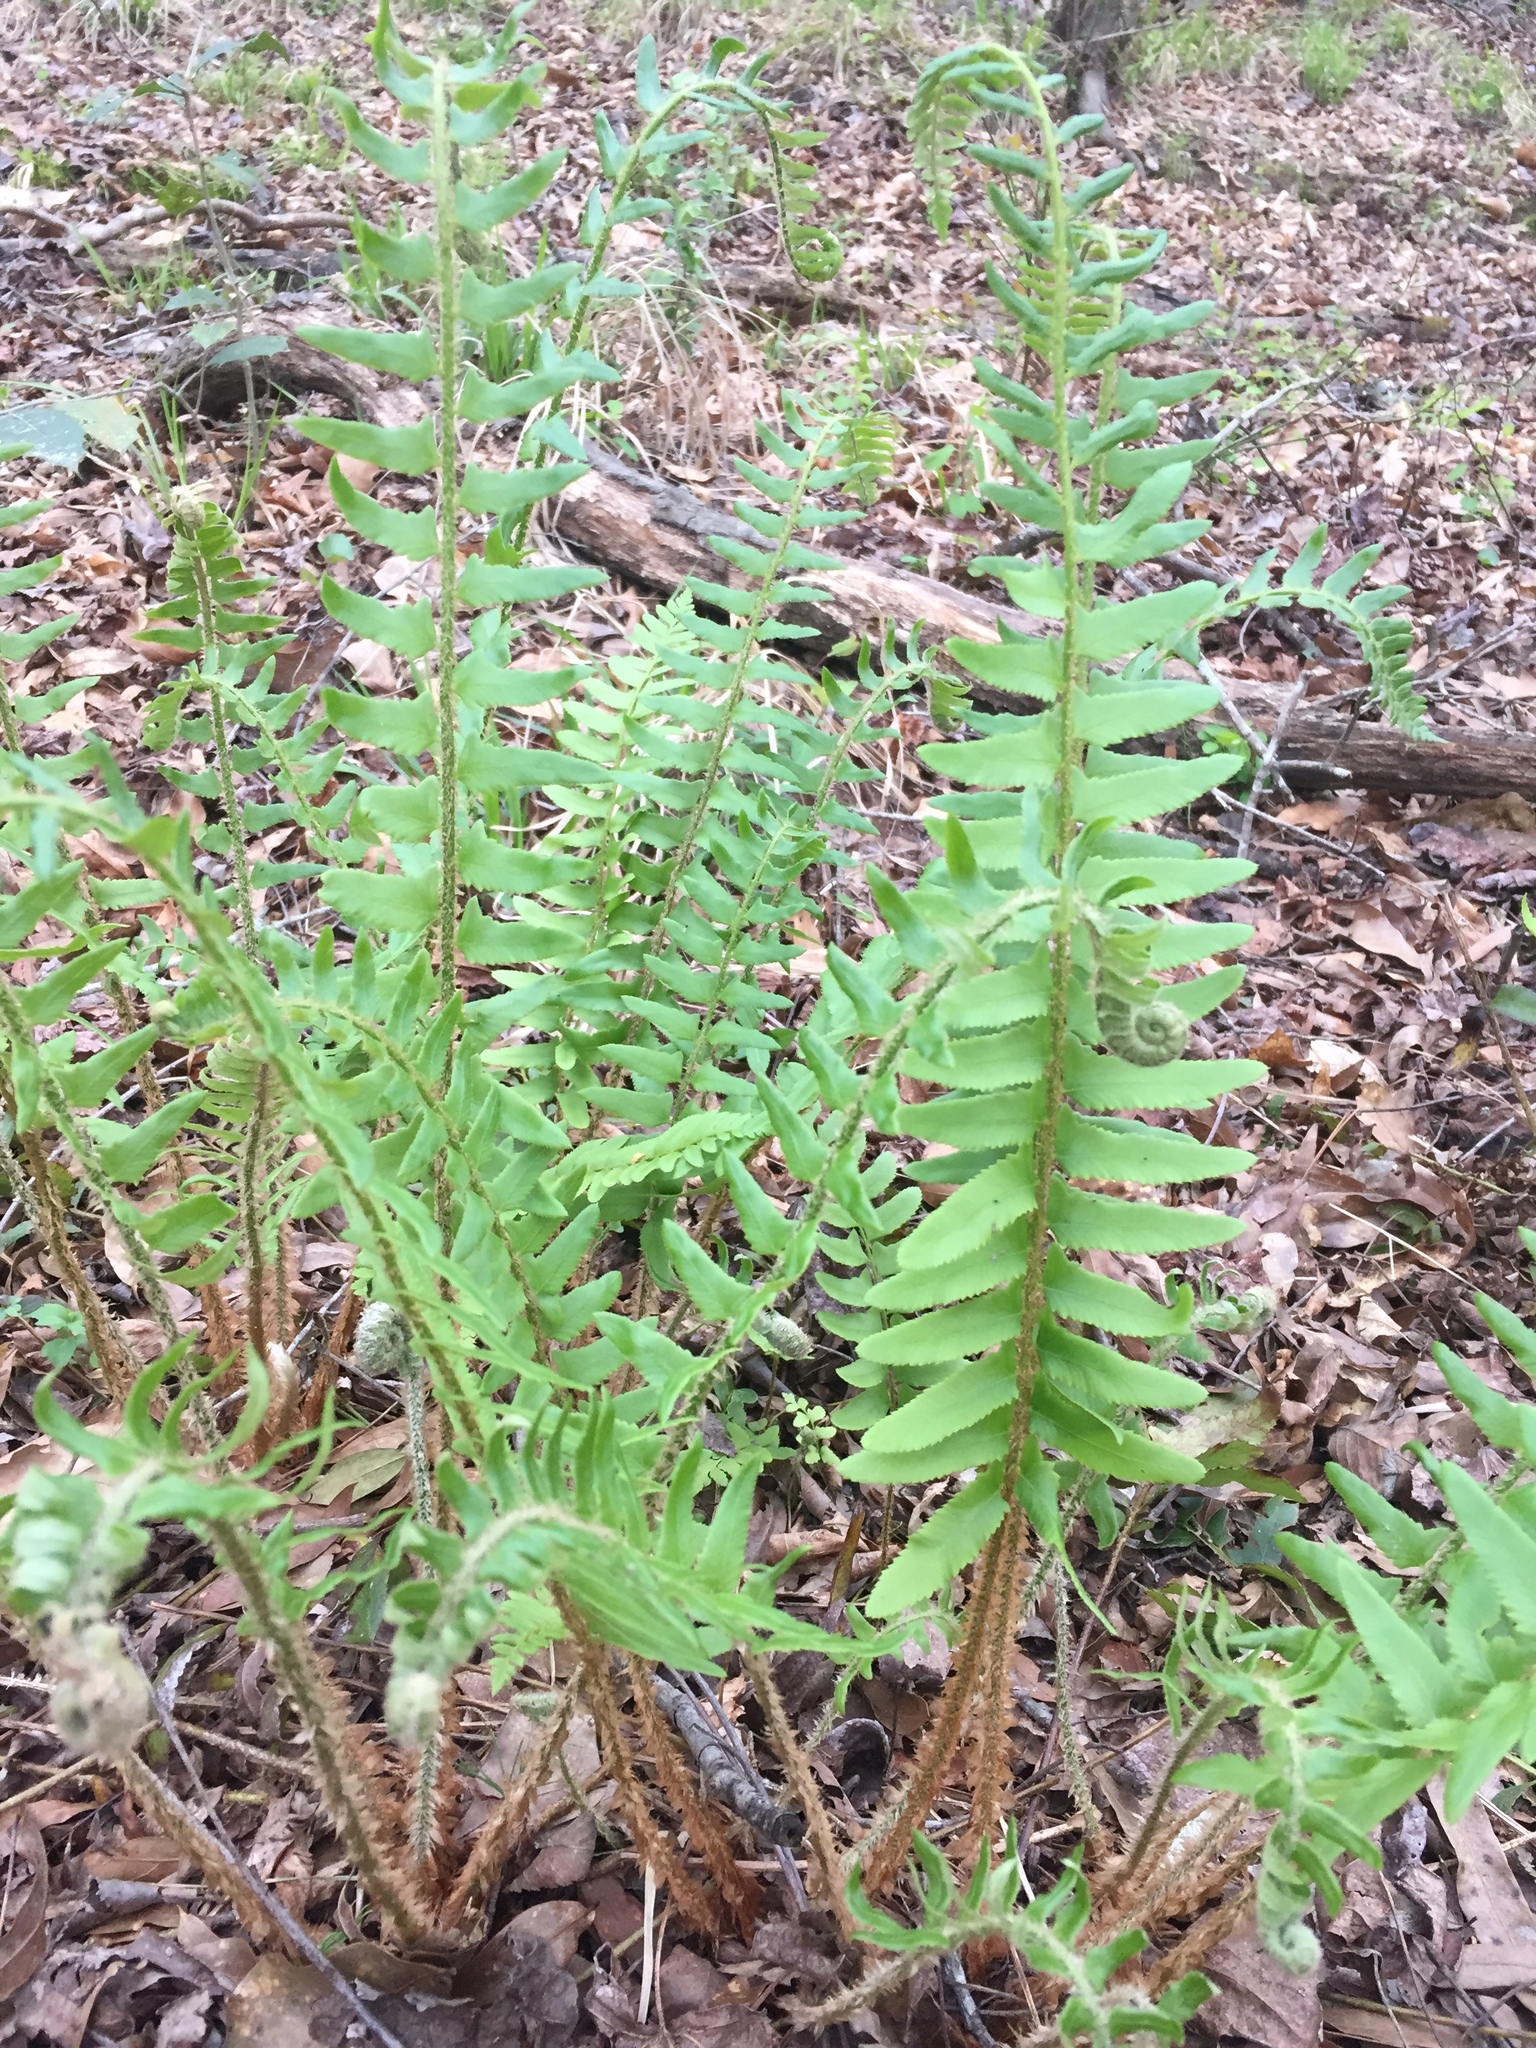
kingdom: Plantae
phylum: Tracheophyta
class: Polypodiopsida
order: Polypodiales
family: Dryopteridaceae
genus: Polystichum
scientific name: Polystichum acrostichoides
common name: Christmas fern
